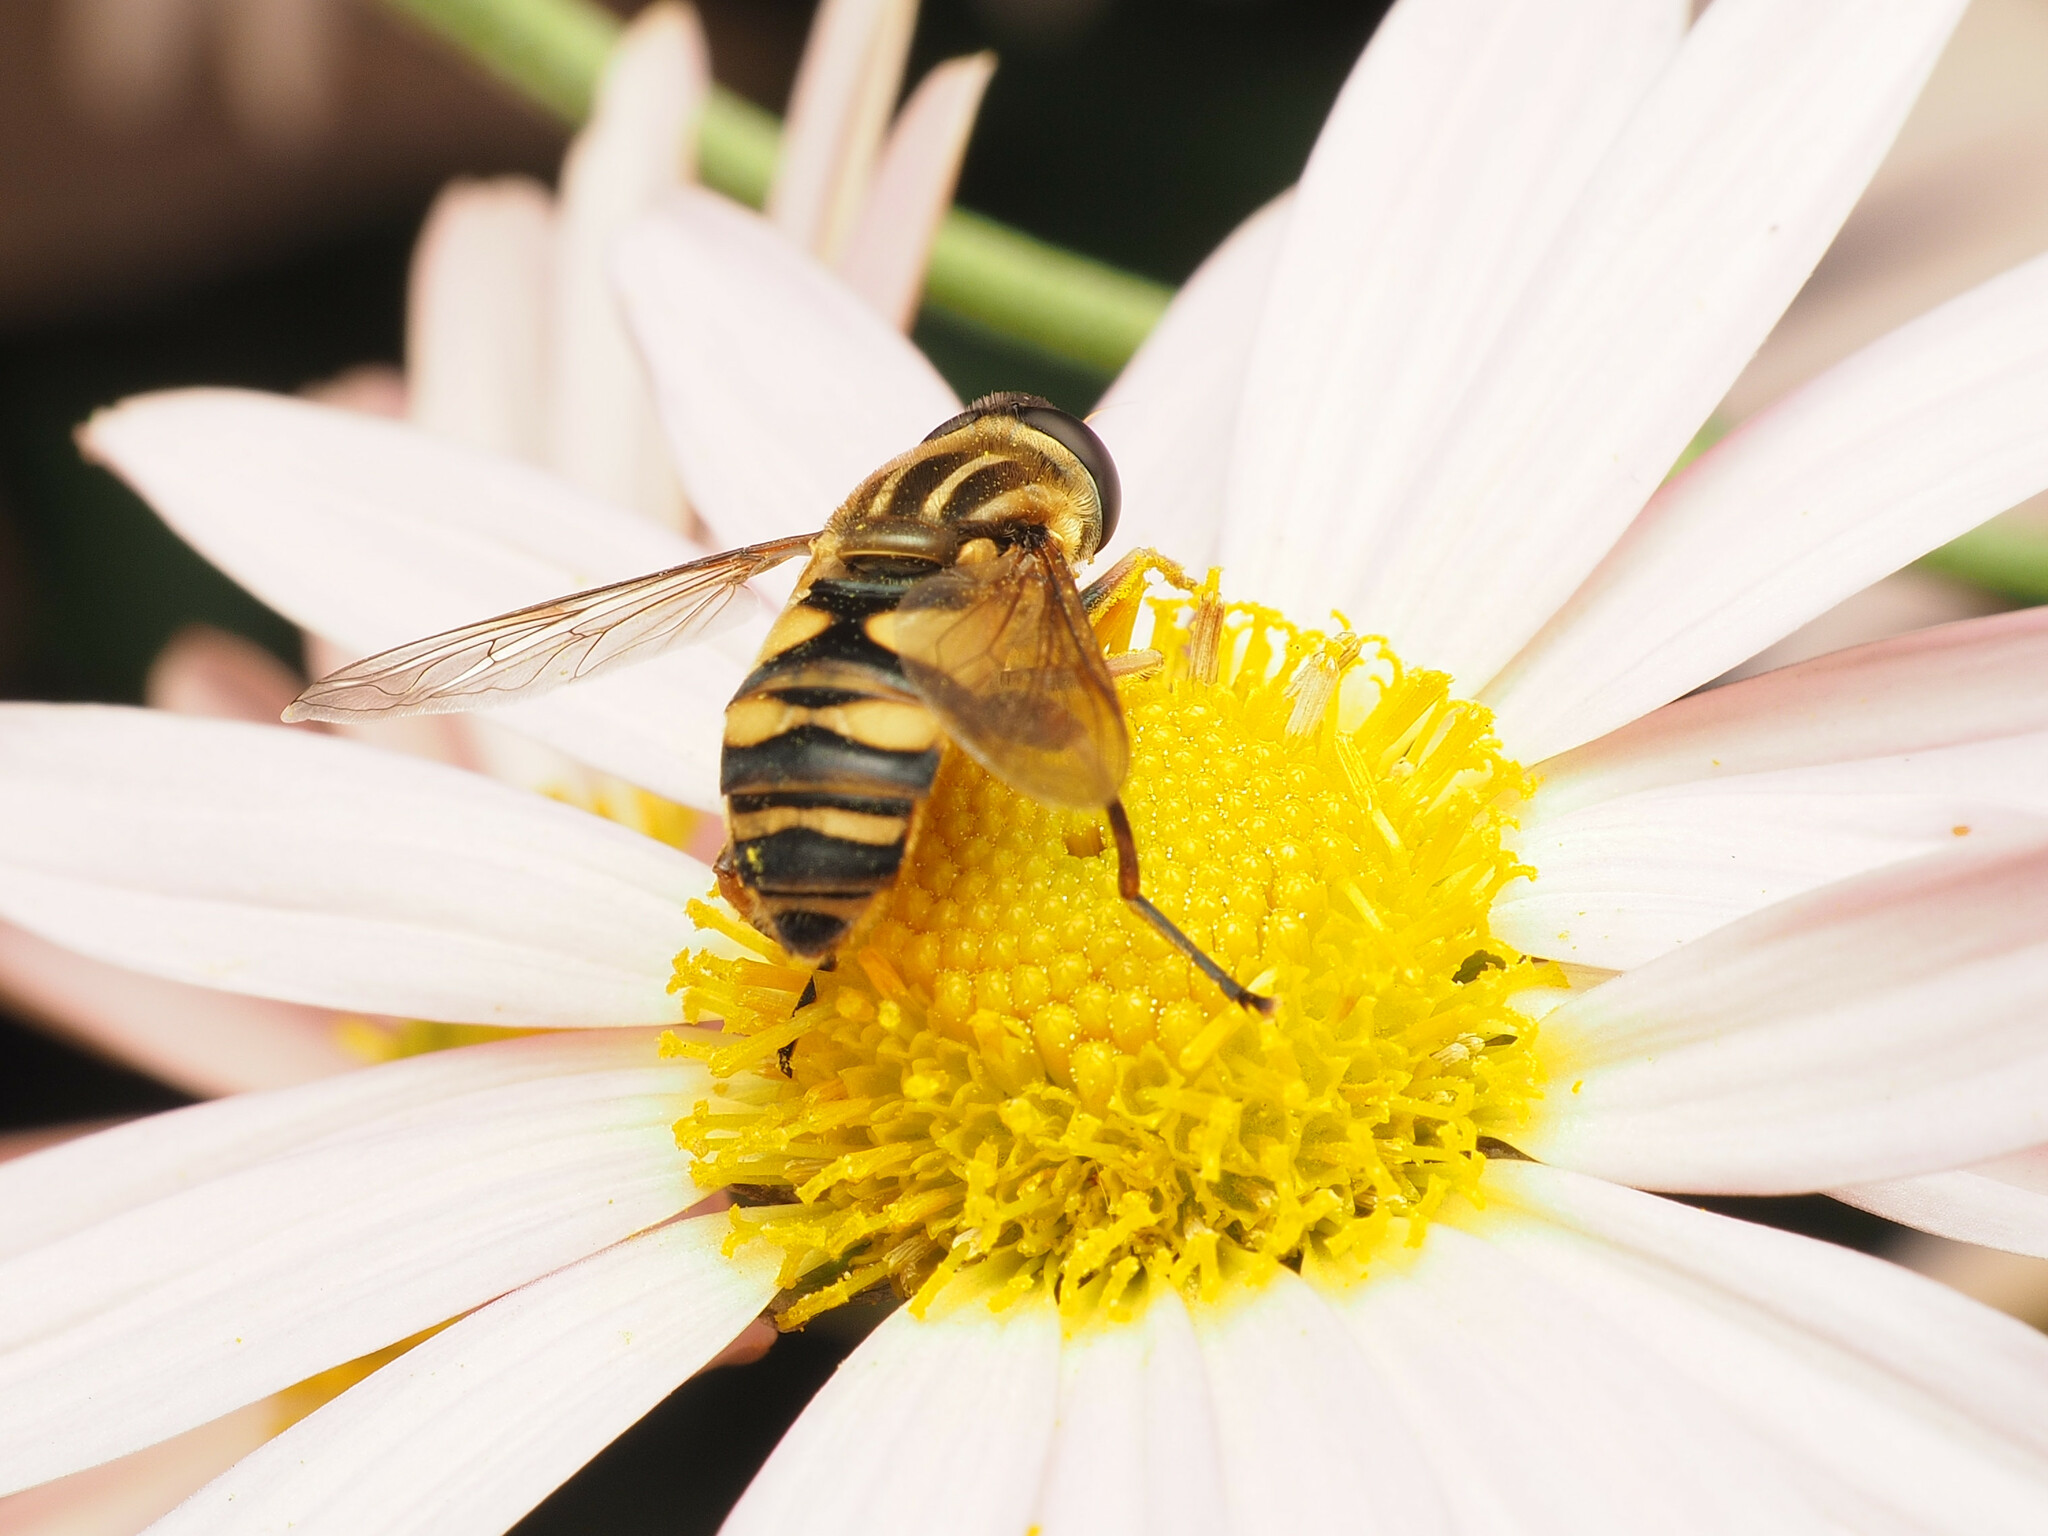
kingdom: Animalia
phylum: Arthropoda
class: Insecta
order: Diptera
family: Syrphidae
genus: Helophilus
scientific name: Helophilus fasciatus
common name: Narrow-headed marsh fly
